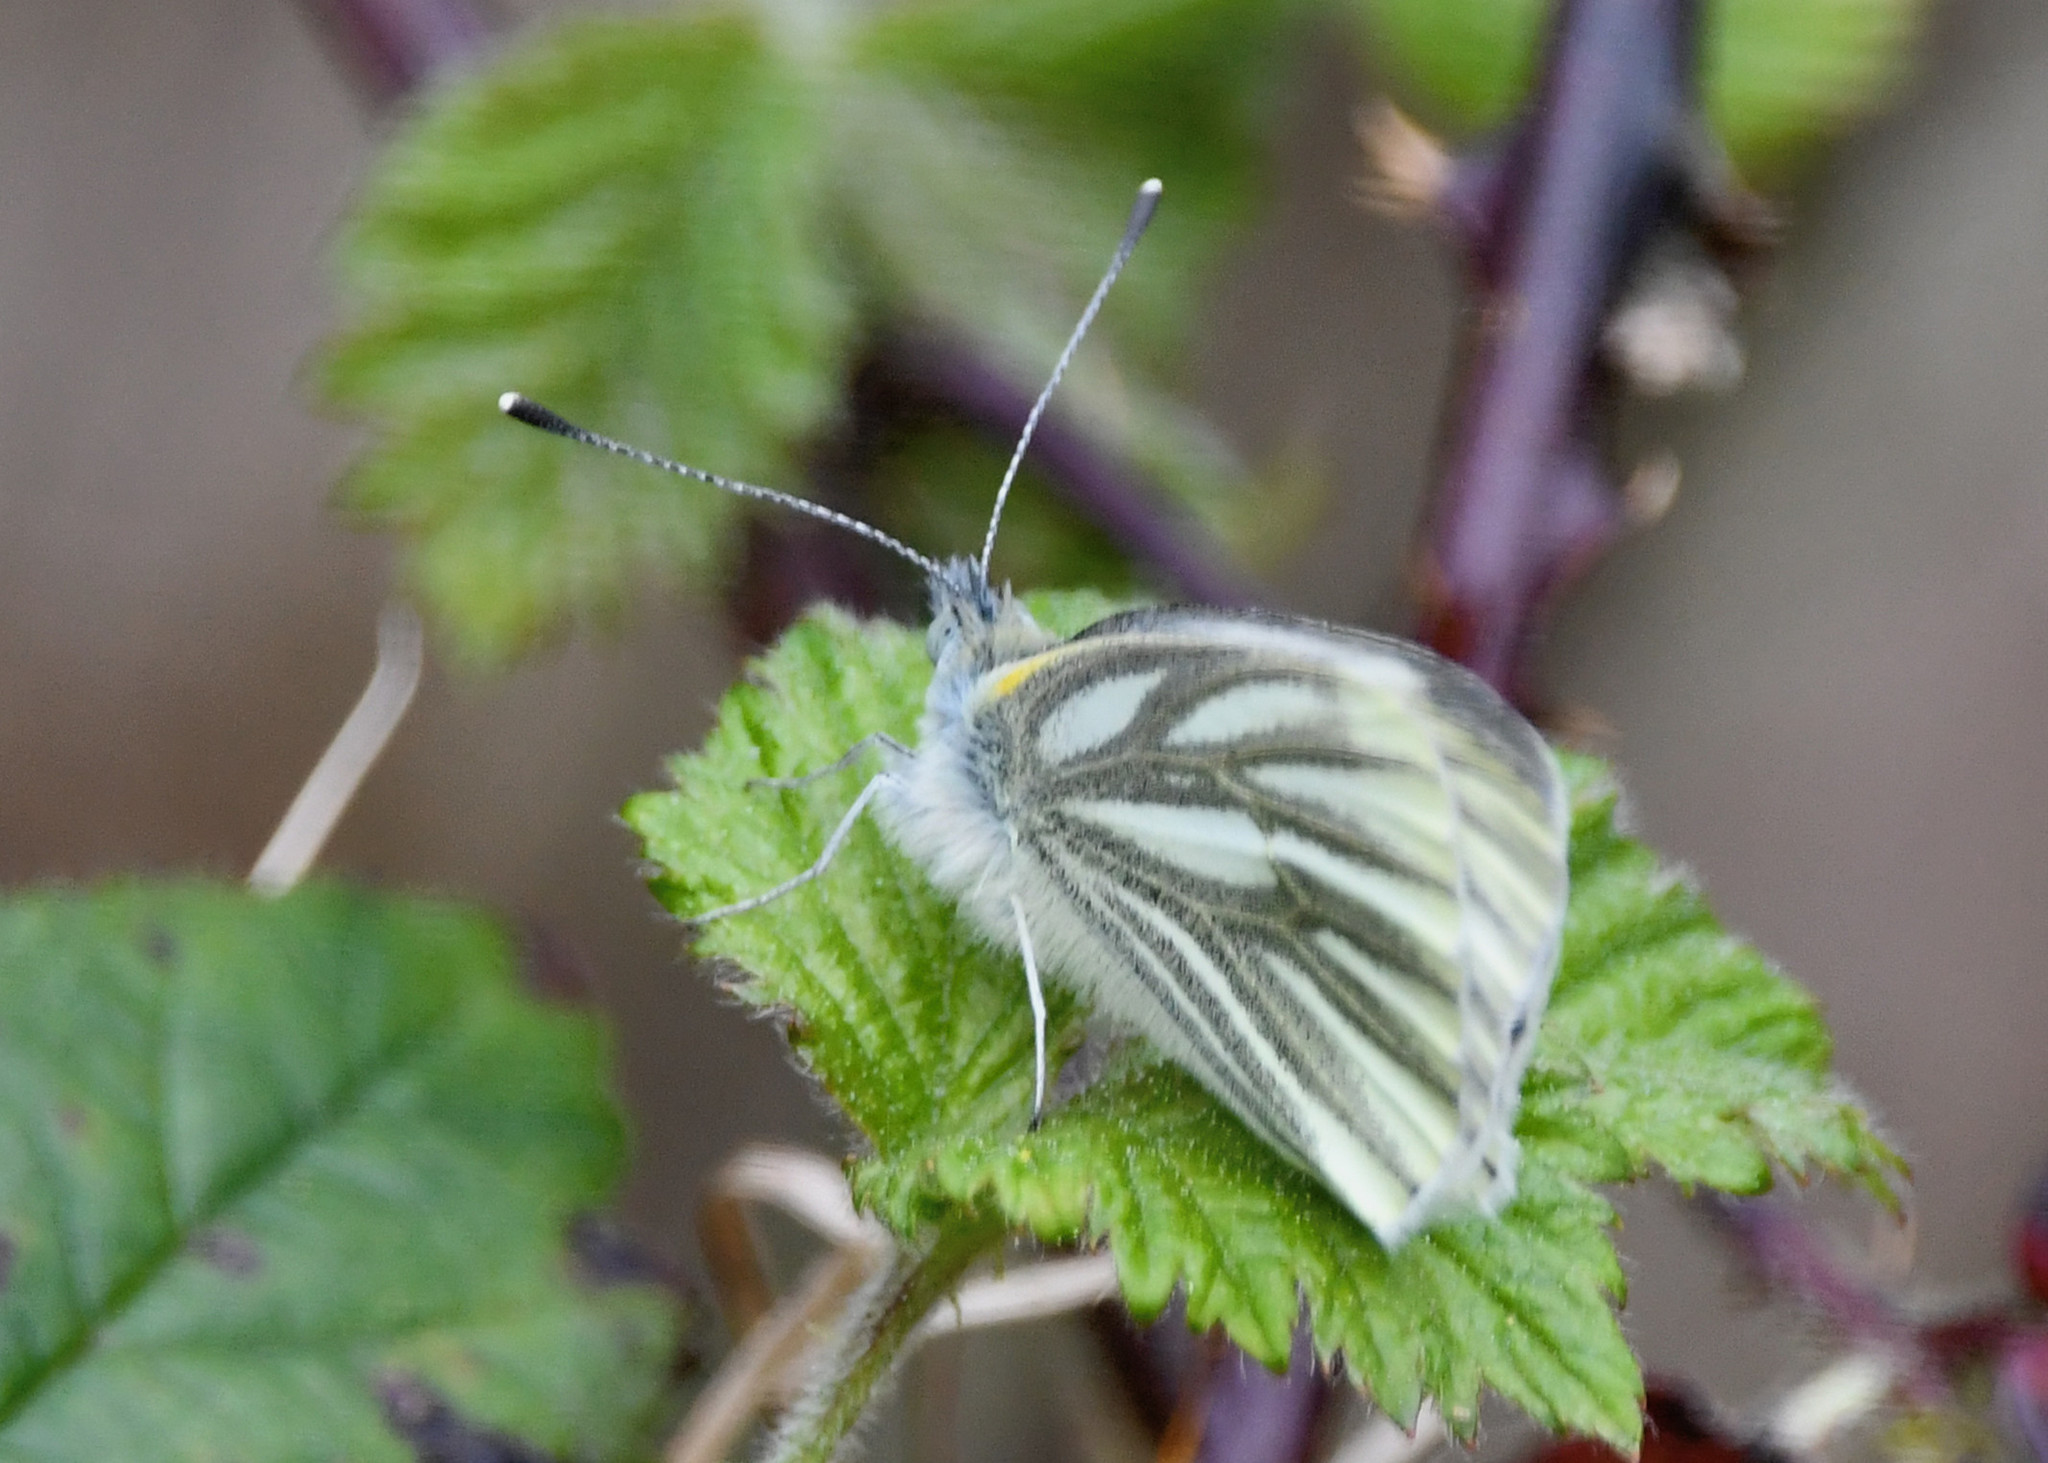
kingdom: Animalia
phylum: Arthropoda
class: Insecta
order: Lepidoptera
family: Pieridae
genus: Pieris
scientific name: Pieris napi
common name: Green-veined white
